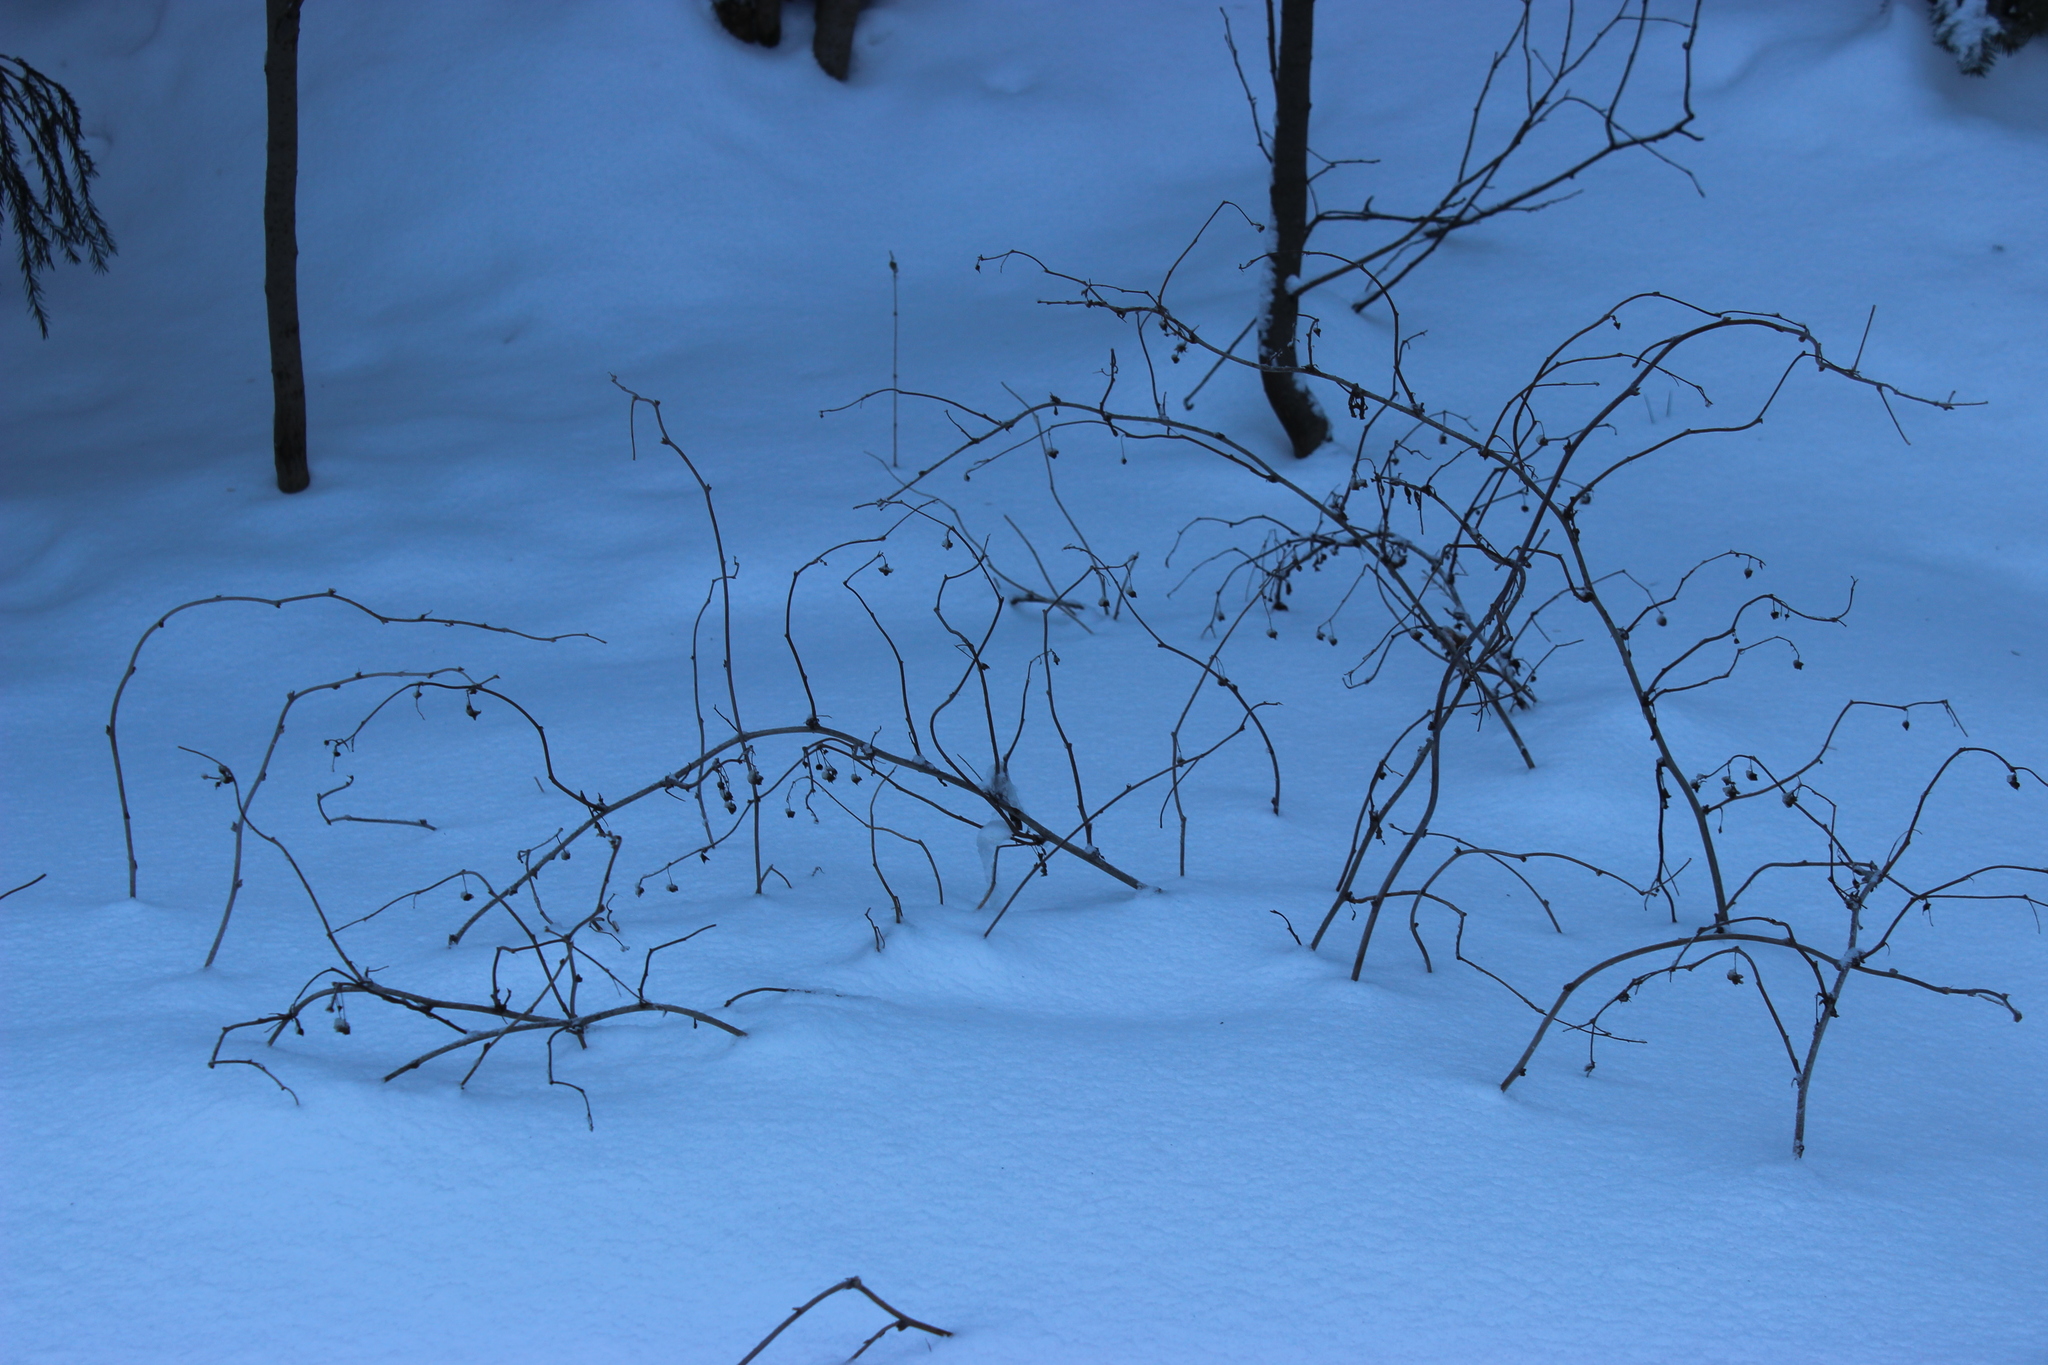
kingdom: Plantae
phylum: Tracheophyta
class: Magnoliopsida
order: Rosales
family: Rosaceae
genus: Rubus
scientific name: Rubus idaeus
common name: Raspberry
